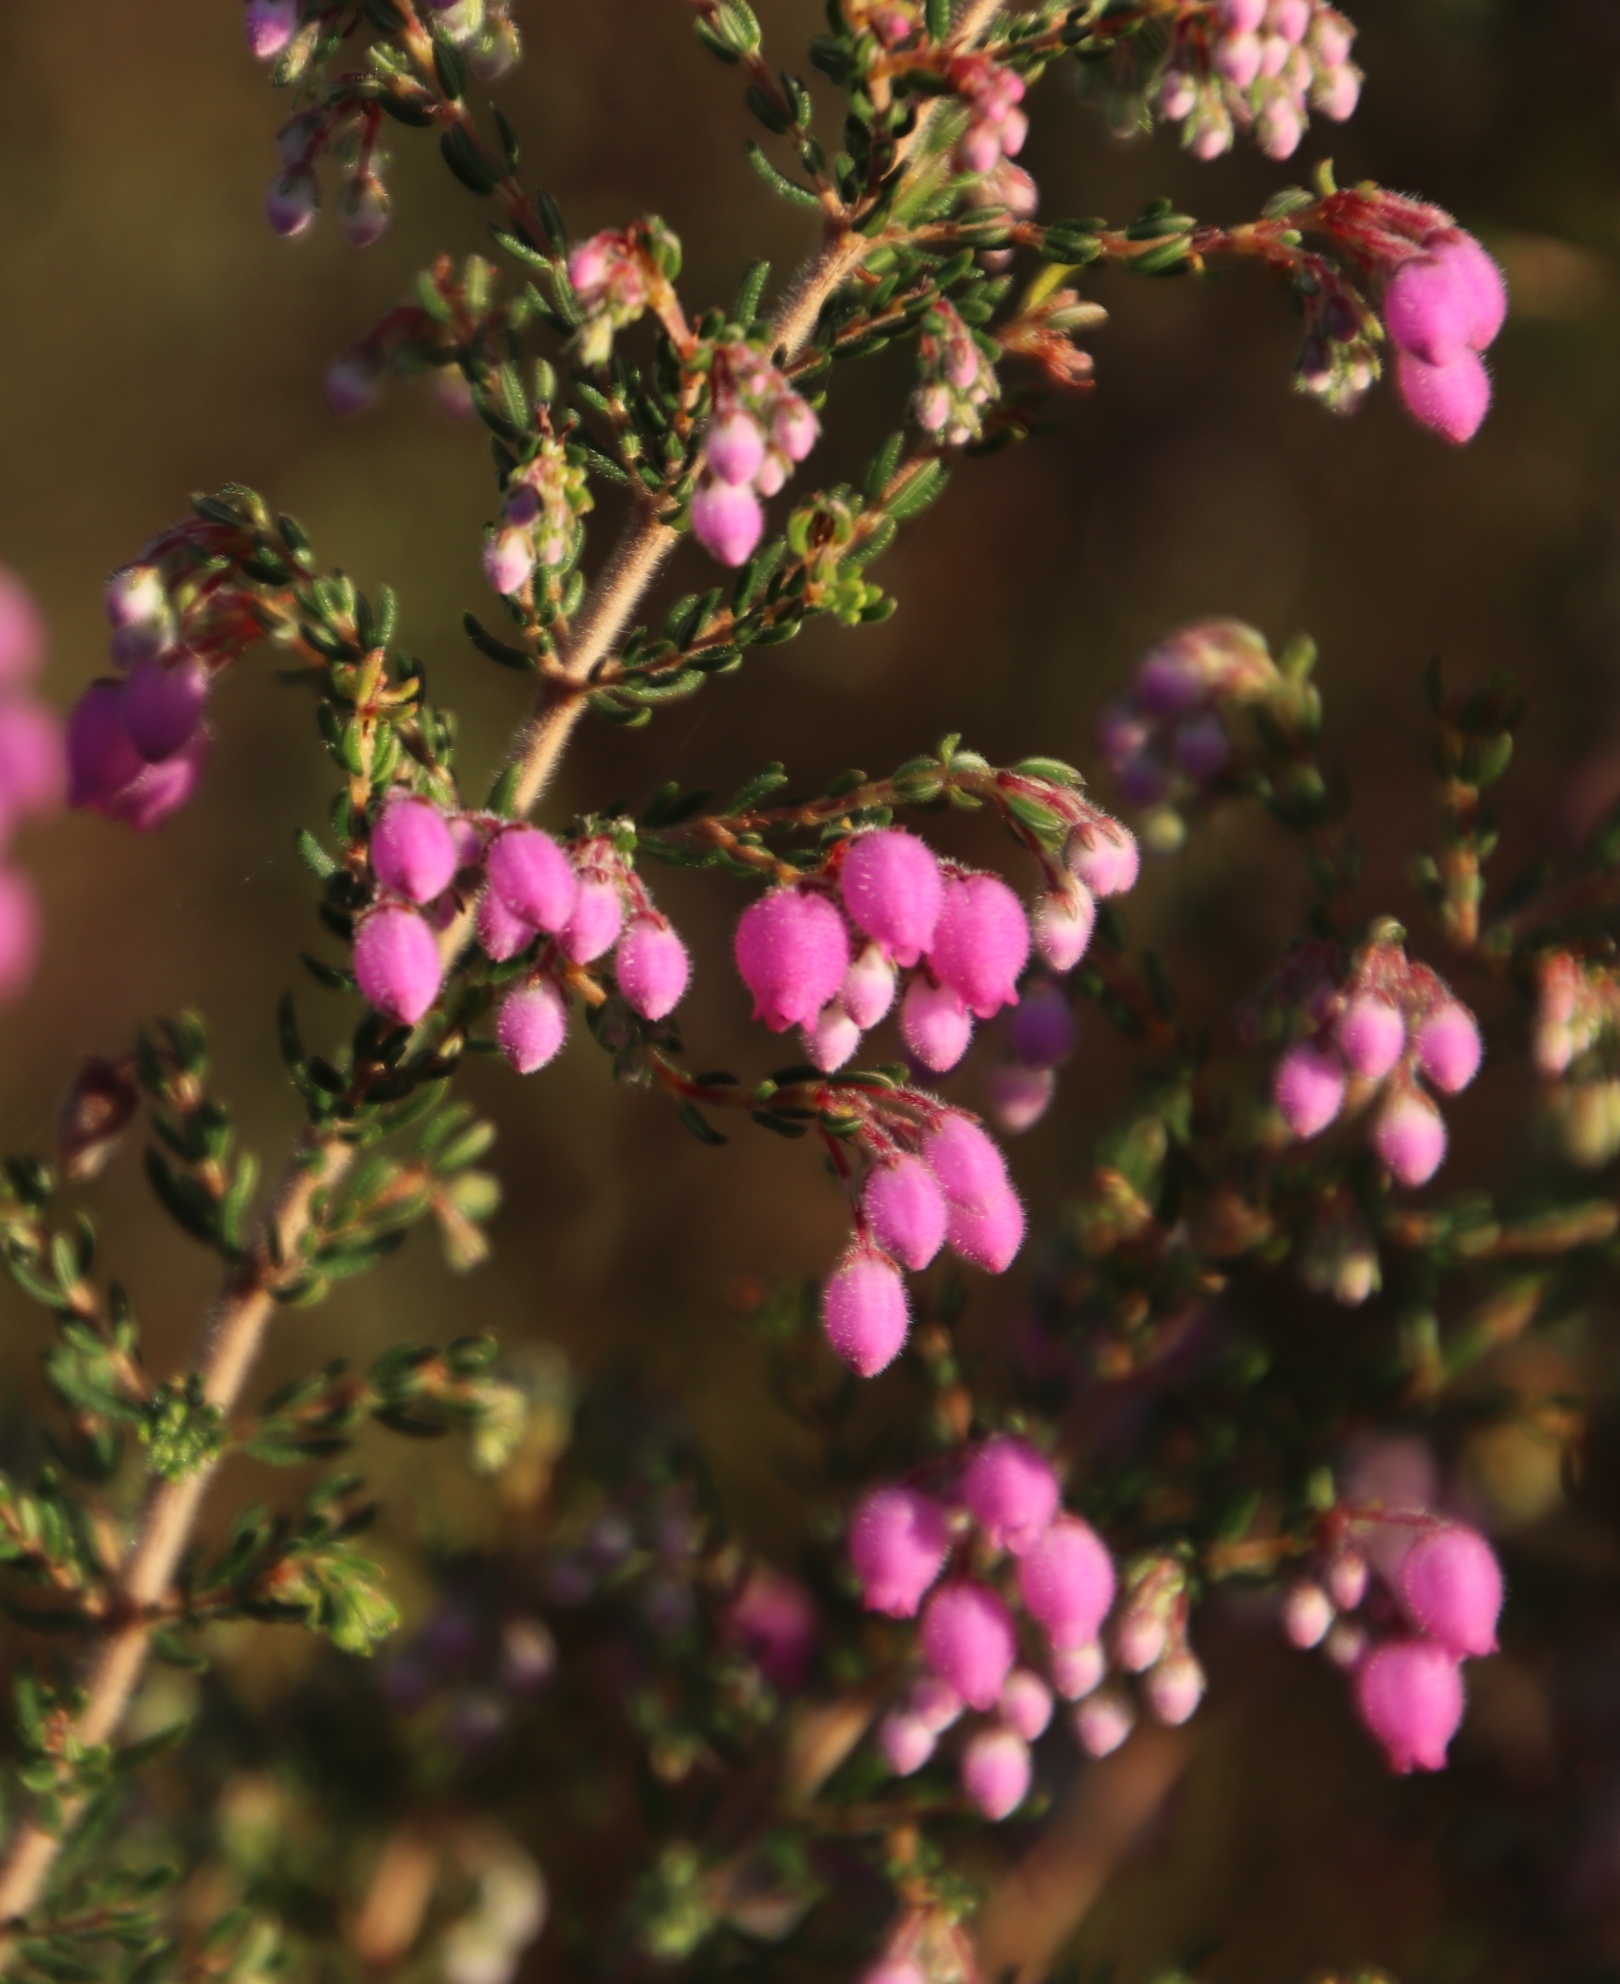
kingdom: Plantae
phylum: Tracheophyta
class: Magnoliopsida
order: Ericales
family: Ericaceae
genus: Erica
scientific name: Erica hirtiflora
